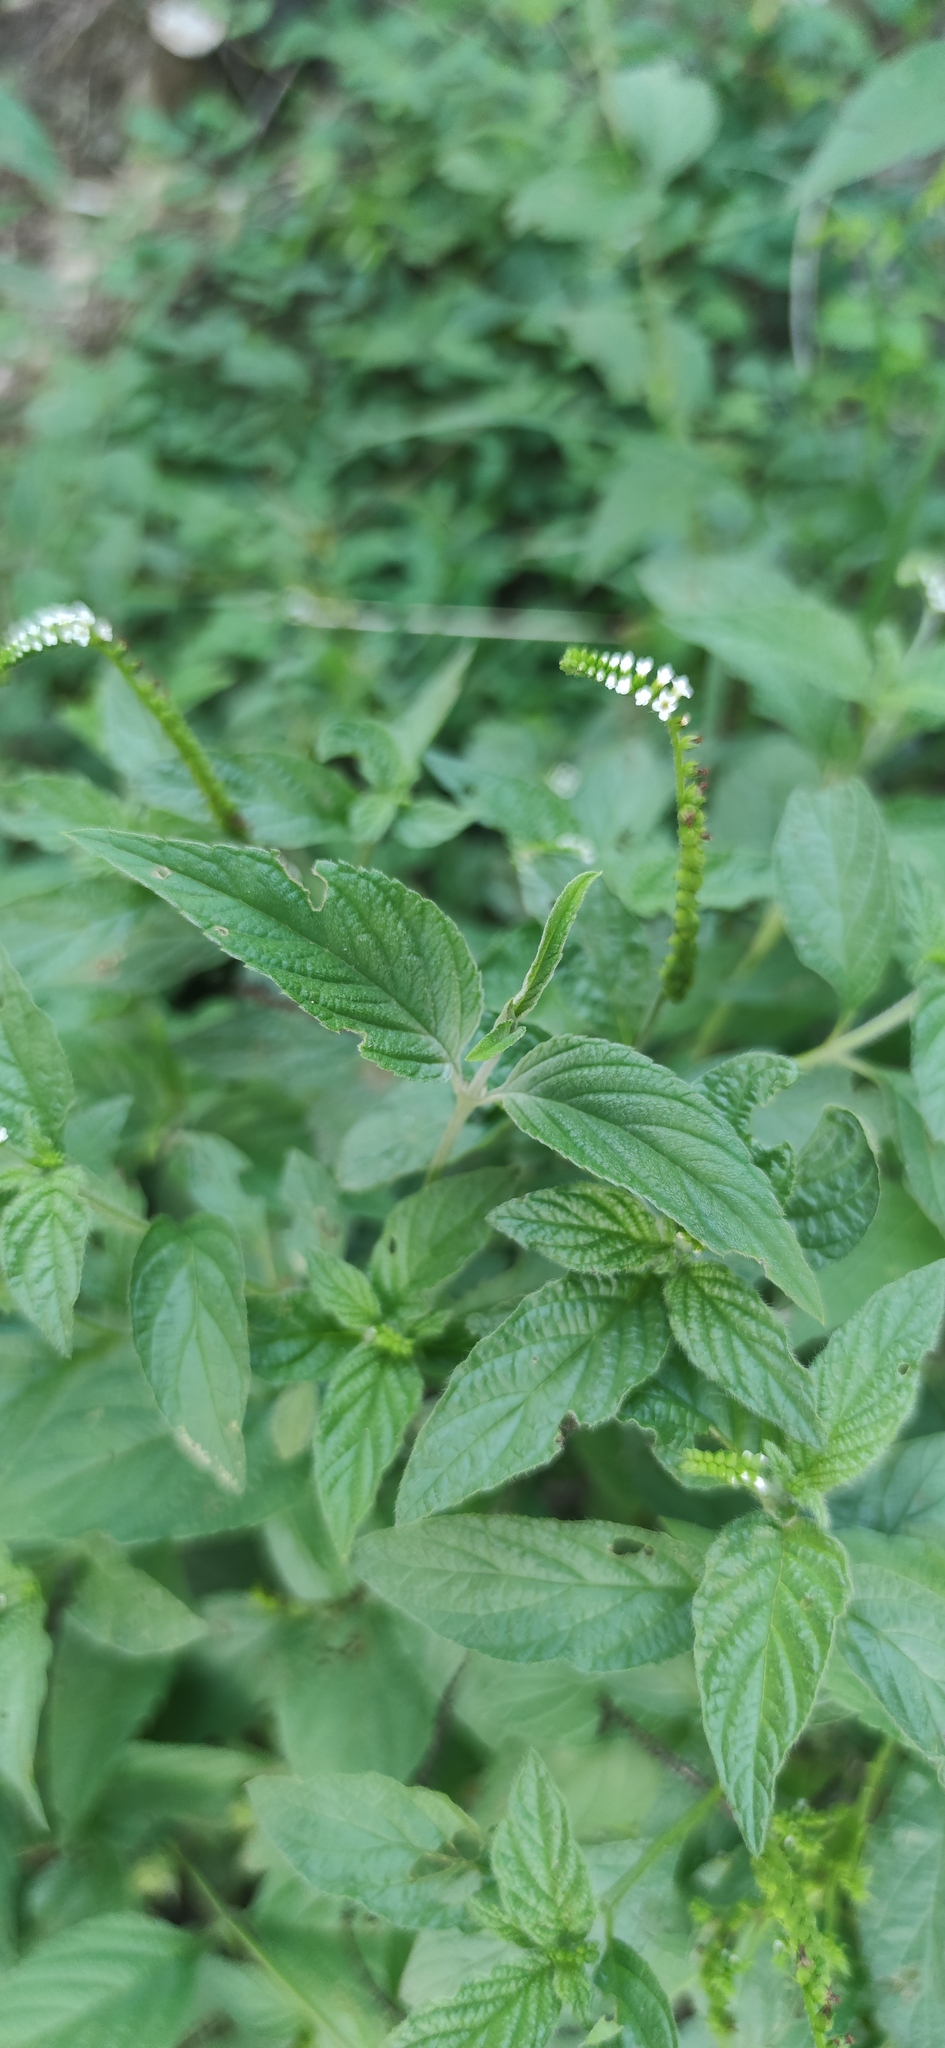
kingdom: Plantae
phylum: Tracheophyta
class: Magnoliopsida
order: Boraginales
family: Heliotropiaceae
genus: Heliotropium
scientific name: Heliotropium angiospermum
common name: Eye bright
